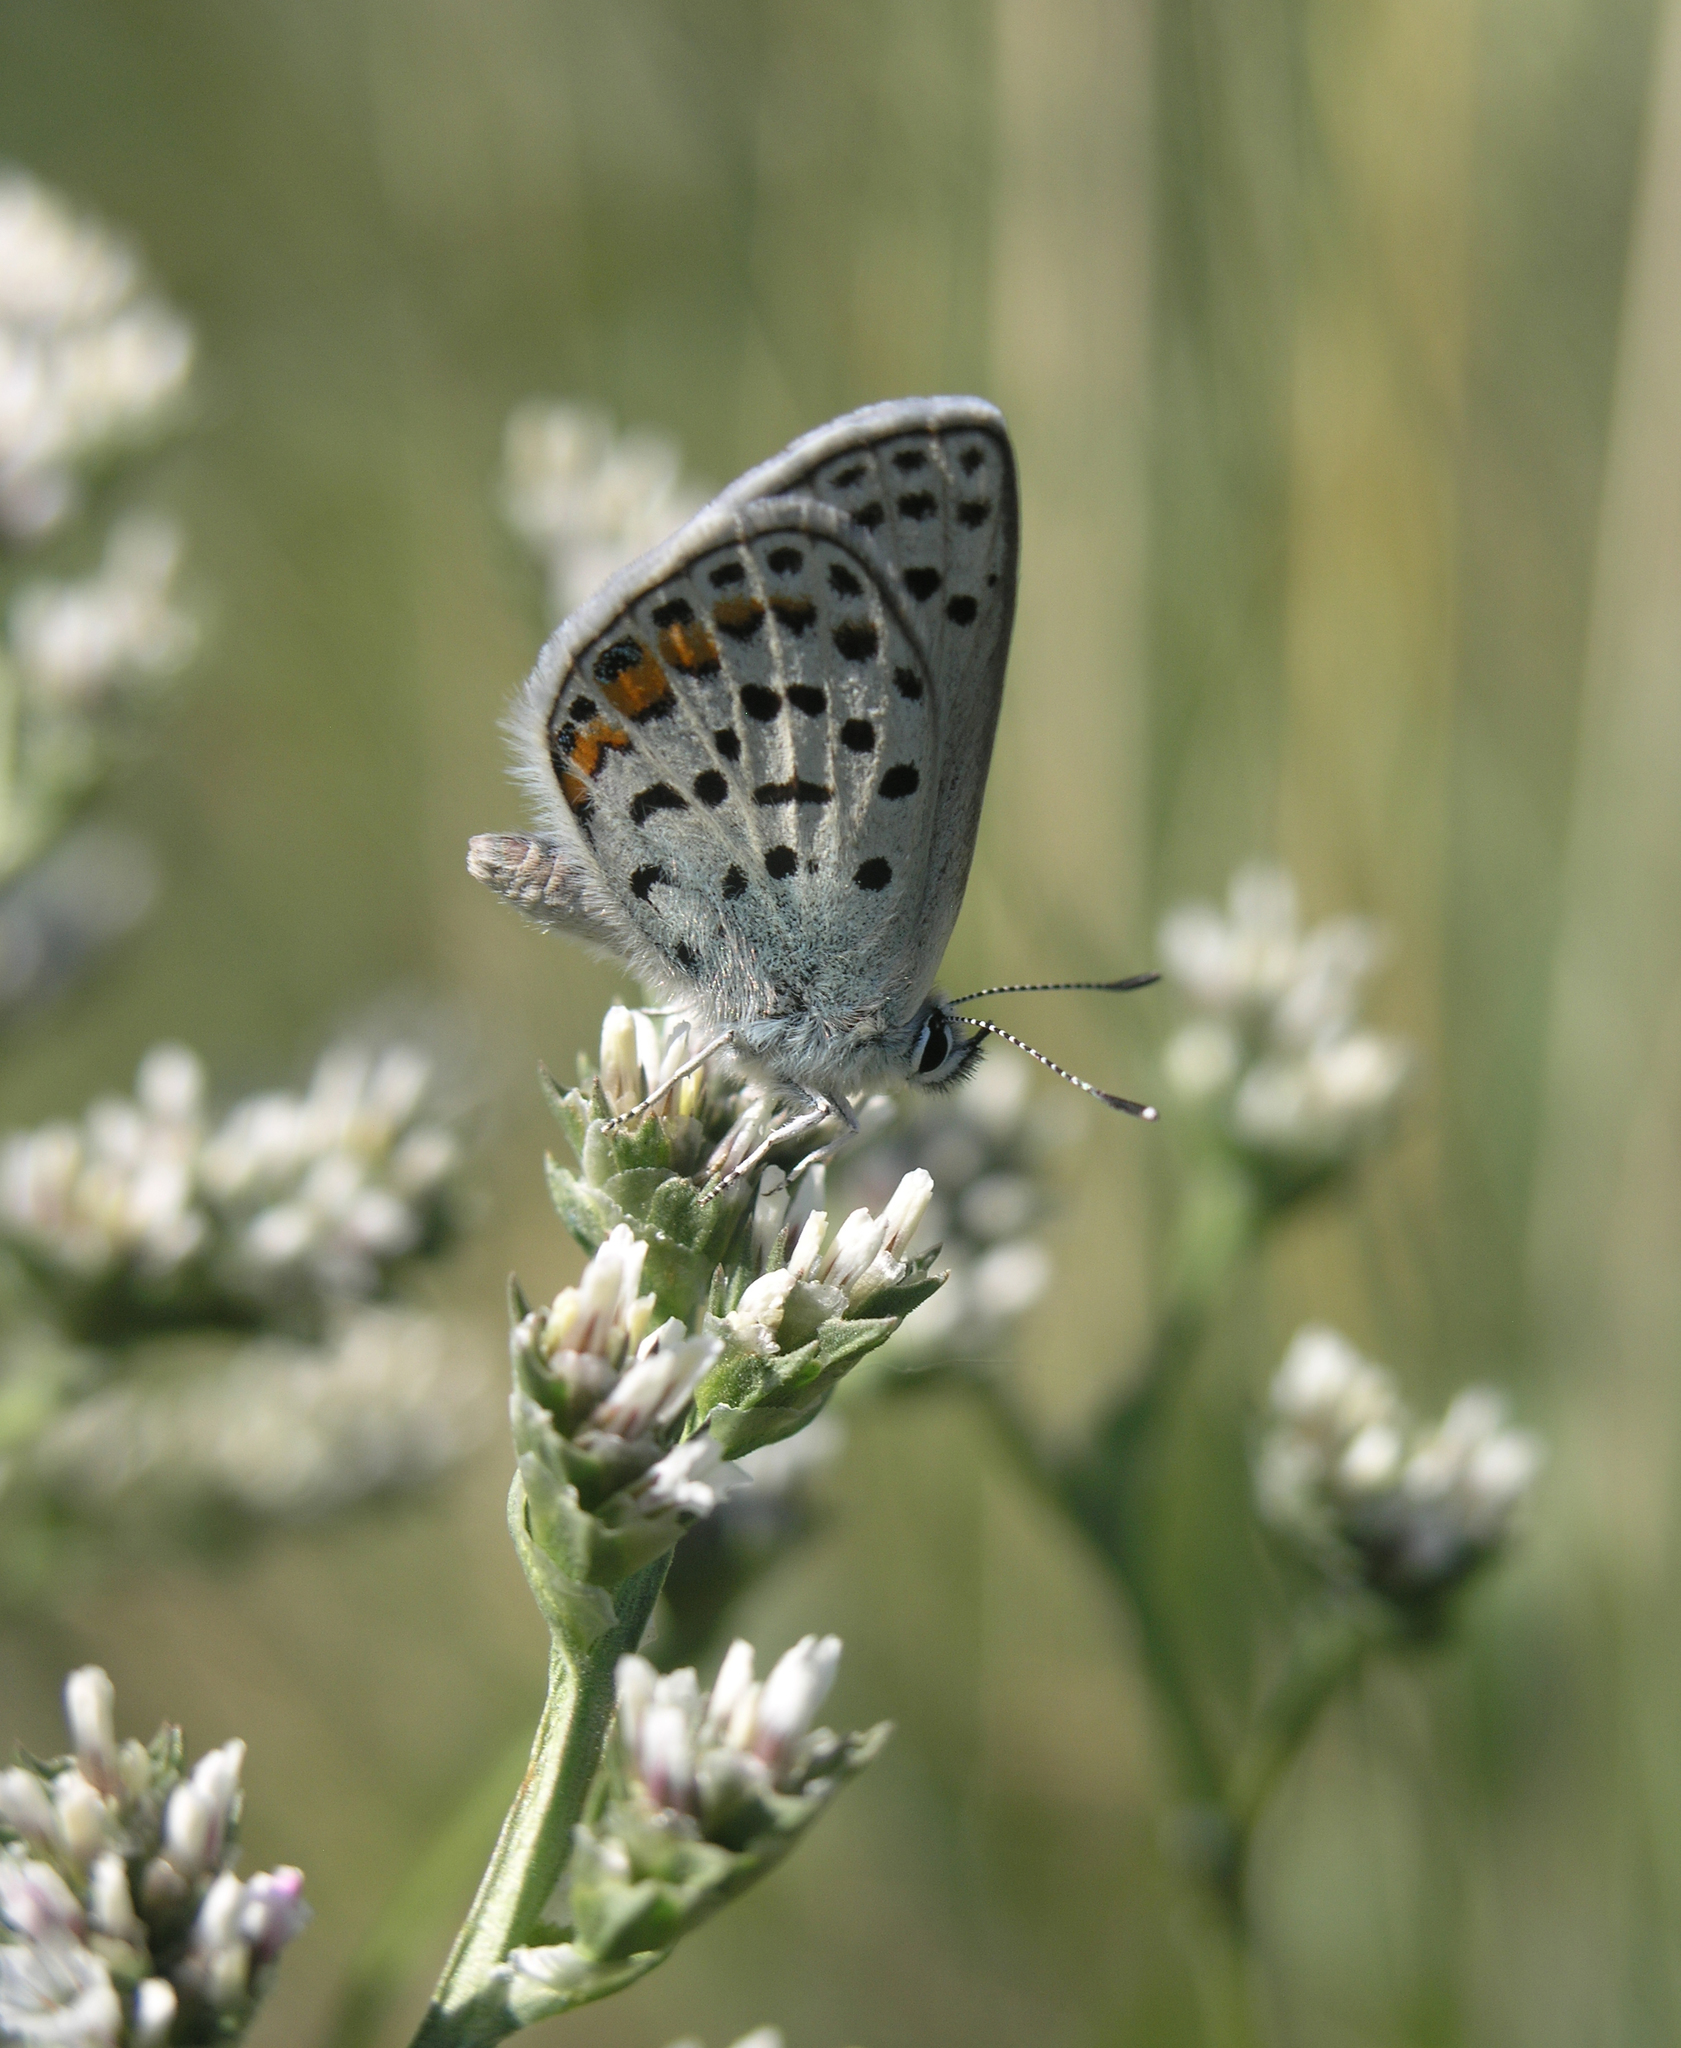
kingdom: Animalia
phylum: Arthropoda
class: Insecta
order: Lepidoptera
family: Lycaenidae
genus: Glabroculus
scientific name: Glabroculus cyane
